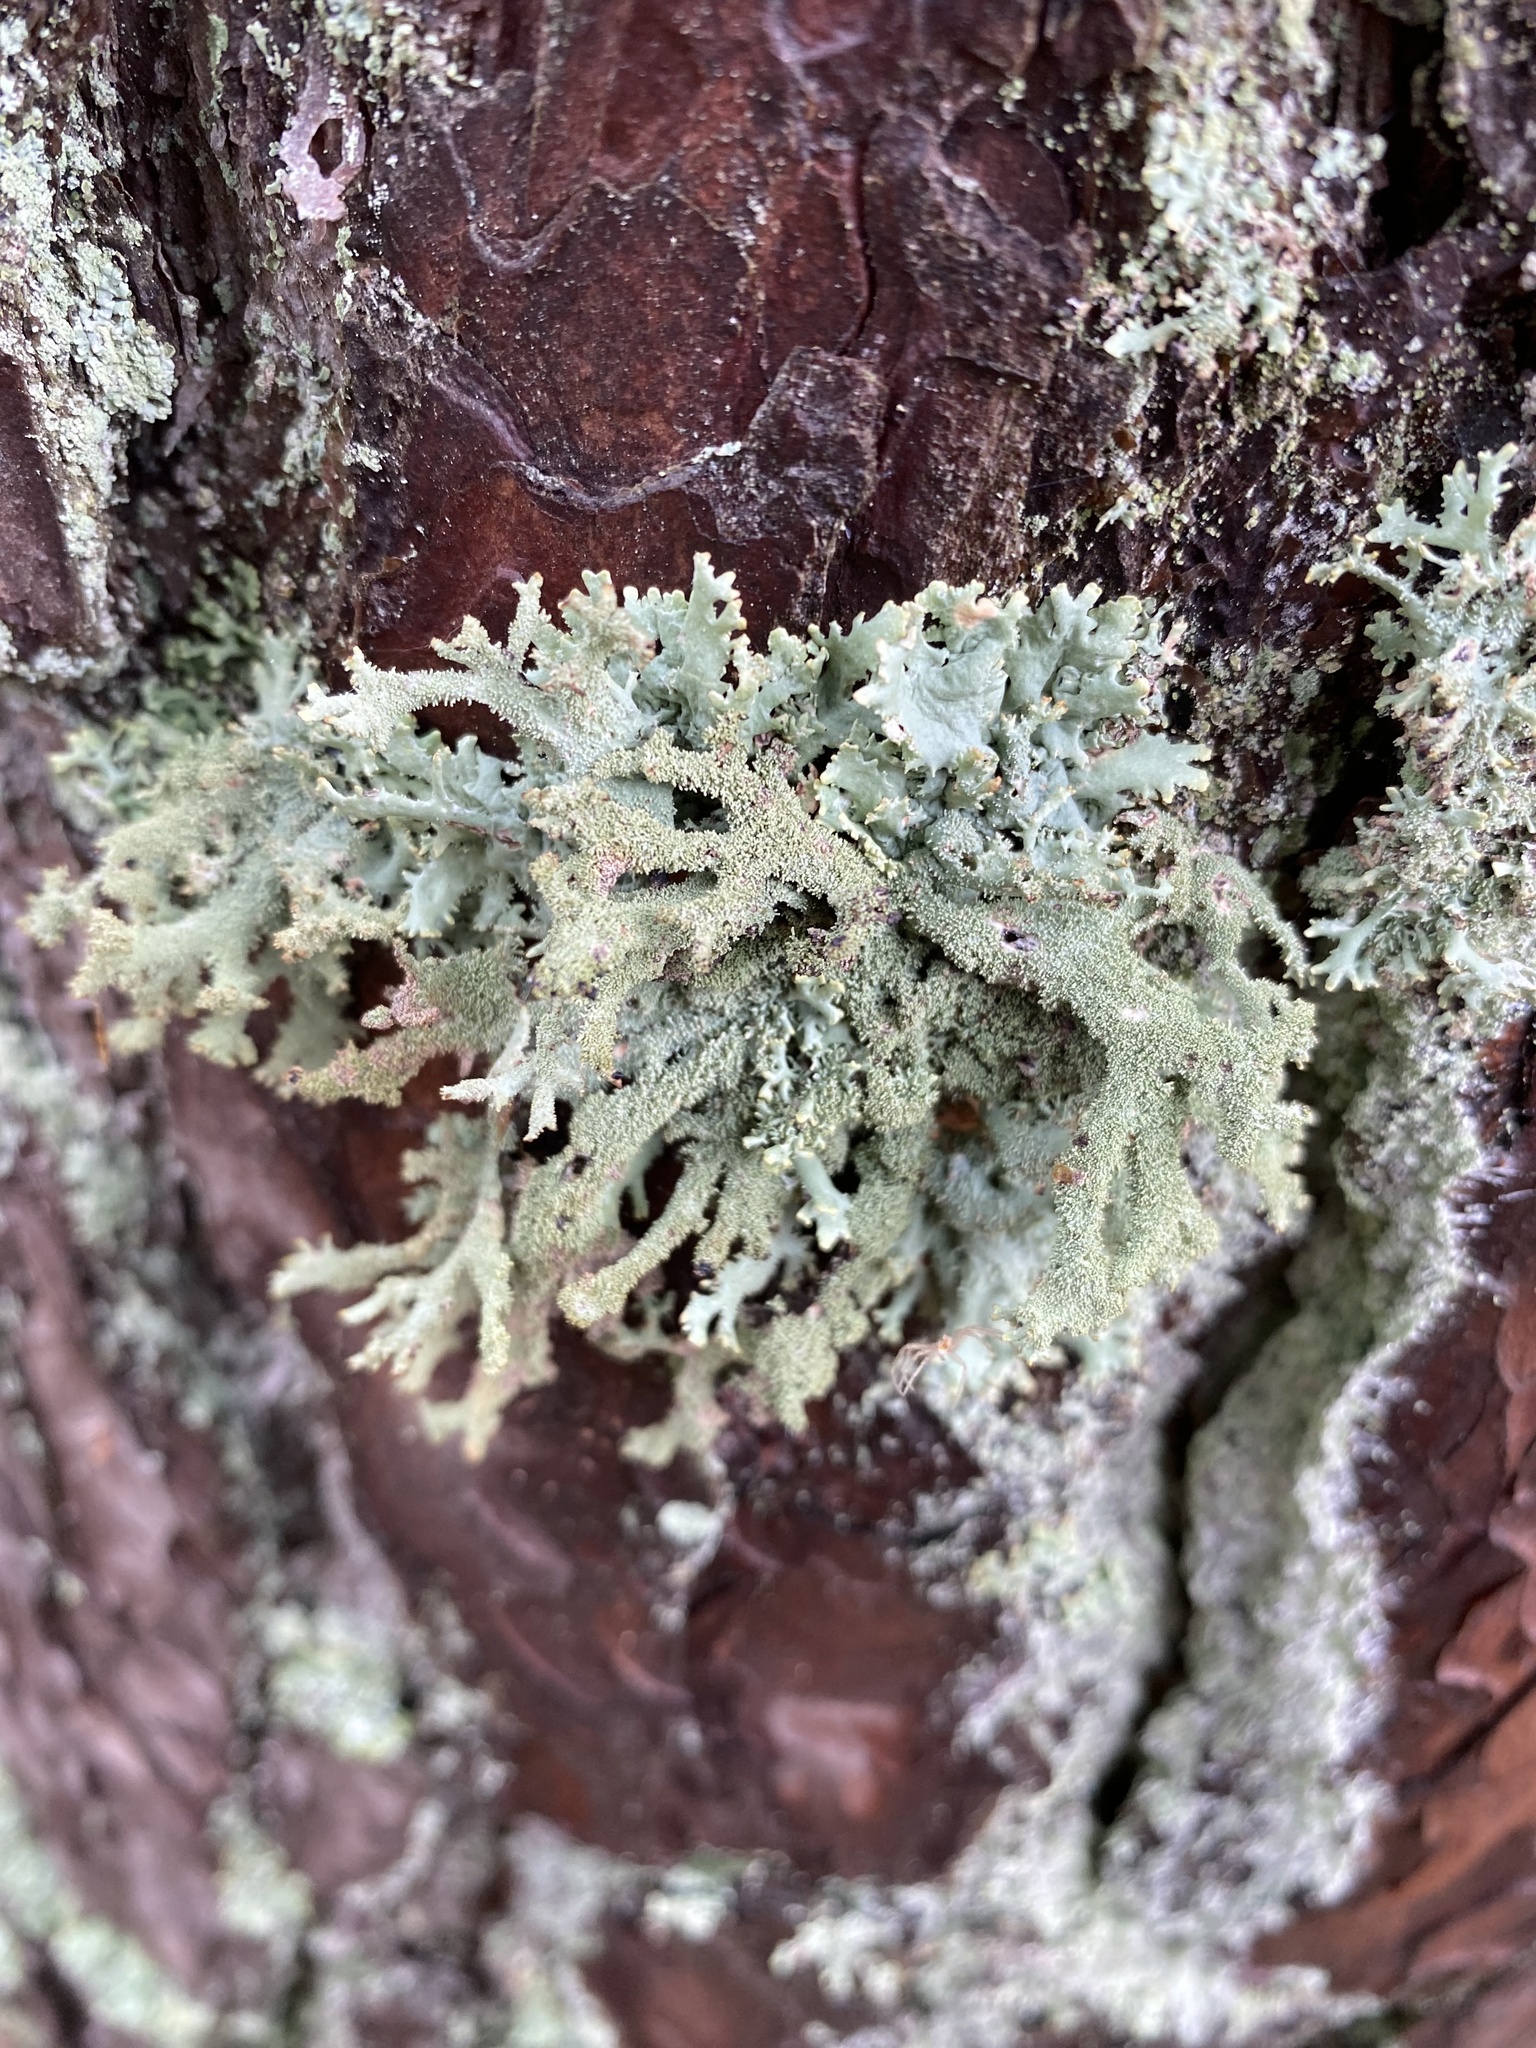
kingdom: Fungi
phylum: Ascomycota
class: Lecanoromycetes
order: Lecanorales
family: Parmeliaceae
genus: Pseudevernia
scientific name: Pseudevernia furfuracea
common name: Tree moss
